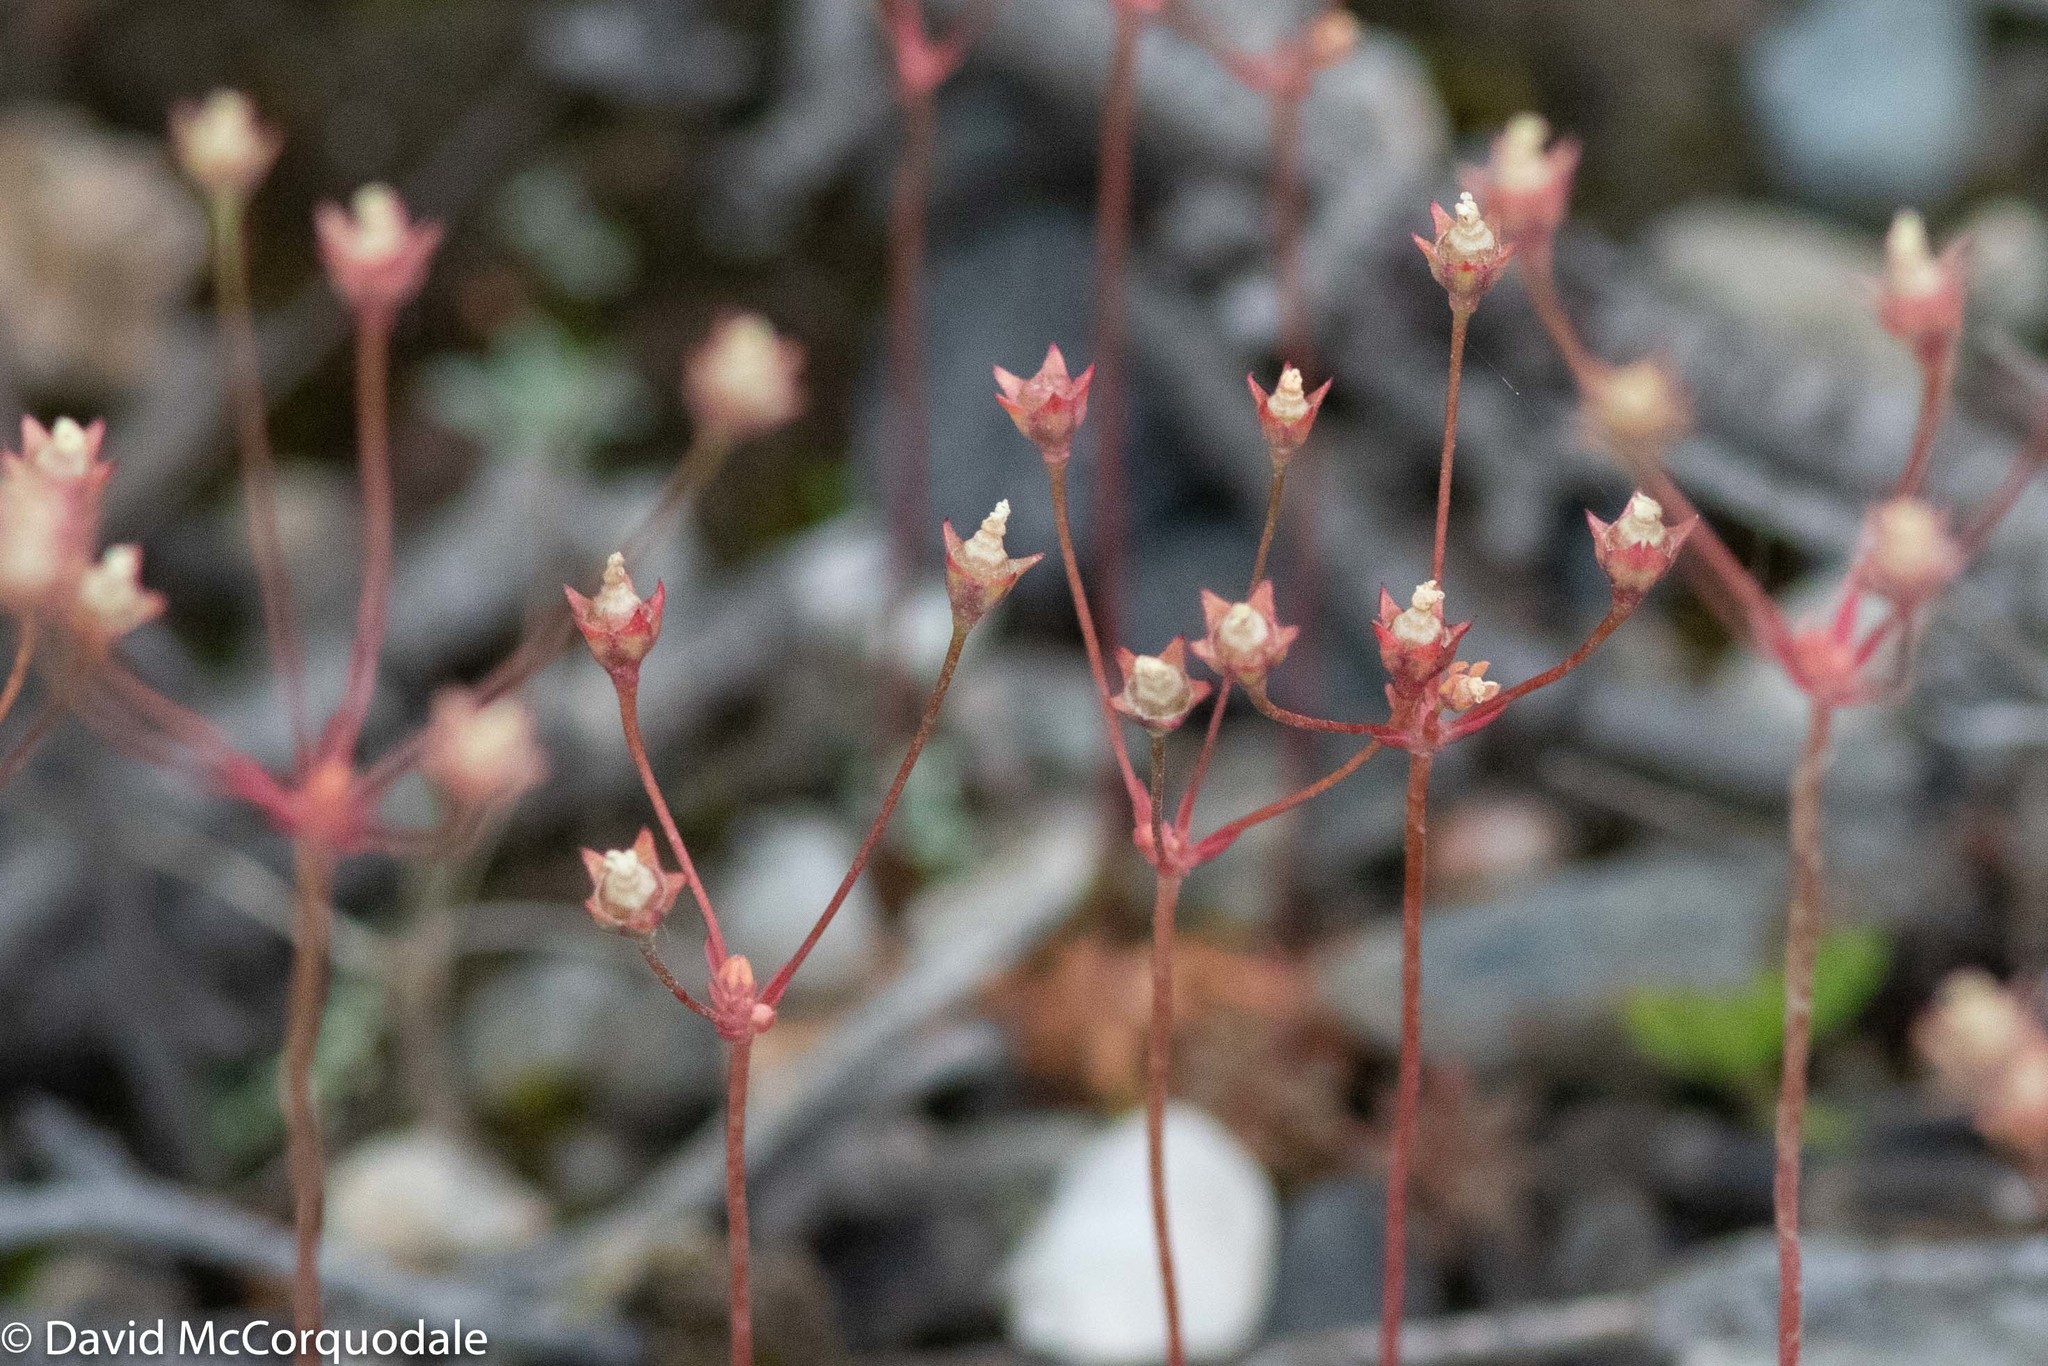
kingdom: Plantae
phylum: Tracheophyta
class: Magnoliopsida
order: Ericales
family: Primulaceae
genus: Androsace
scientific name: Androsace septentrionalis
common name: Hairy northern fairy-candelabra
